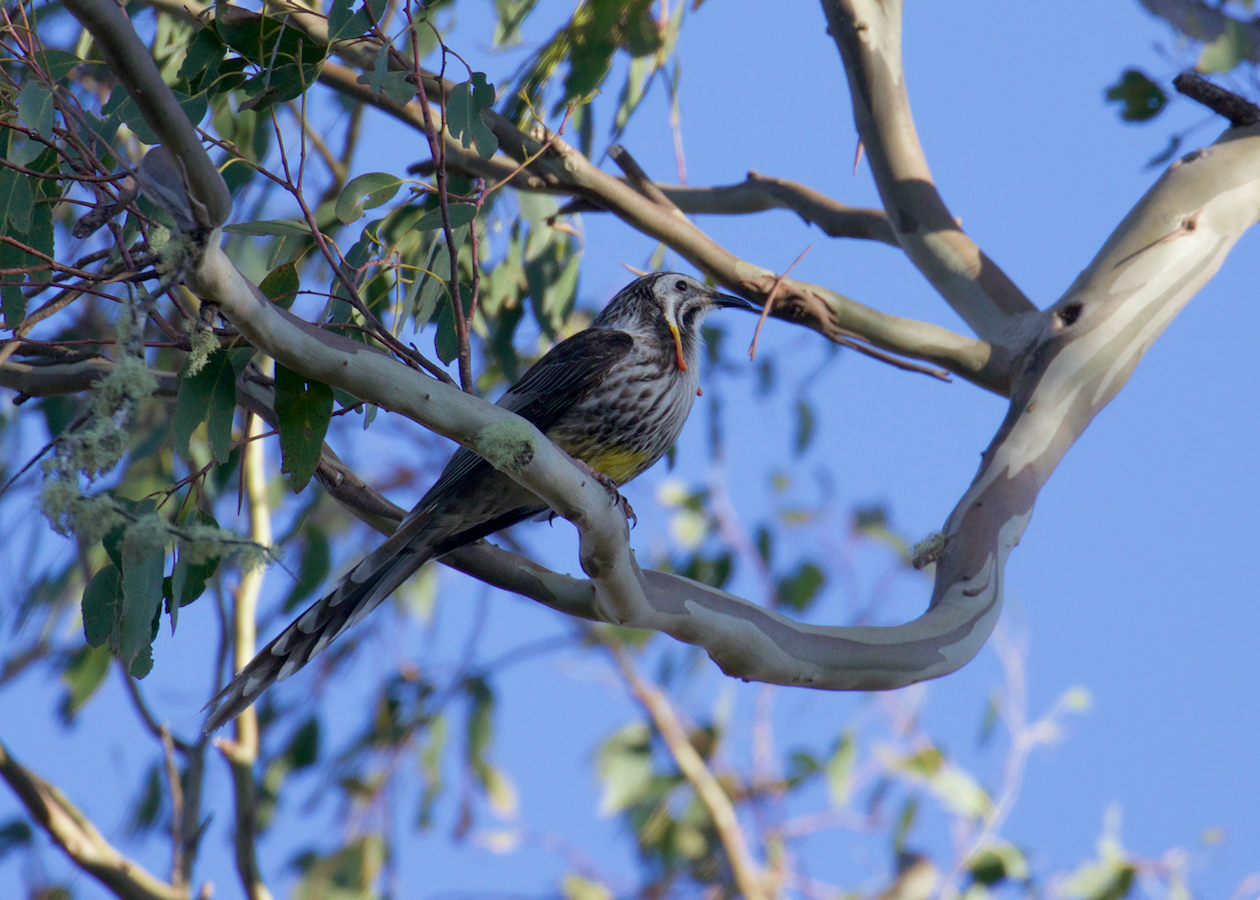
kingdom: Animalia
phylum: Chordata
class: Aves
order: Passeriformes
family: Meliphagidae
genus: Anthochaera
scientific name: Anthochaera paradoxa
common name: Yellow wattlebird
